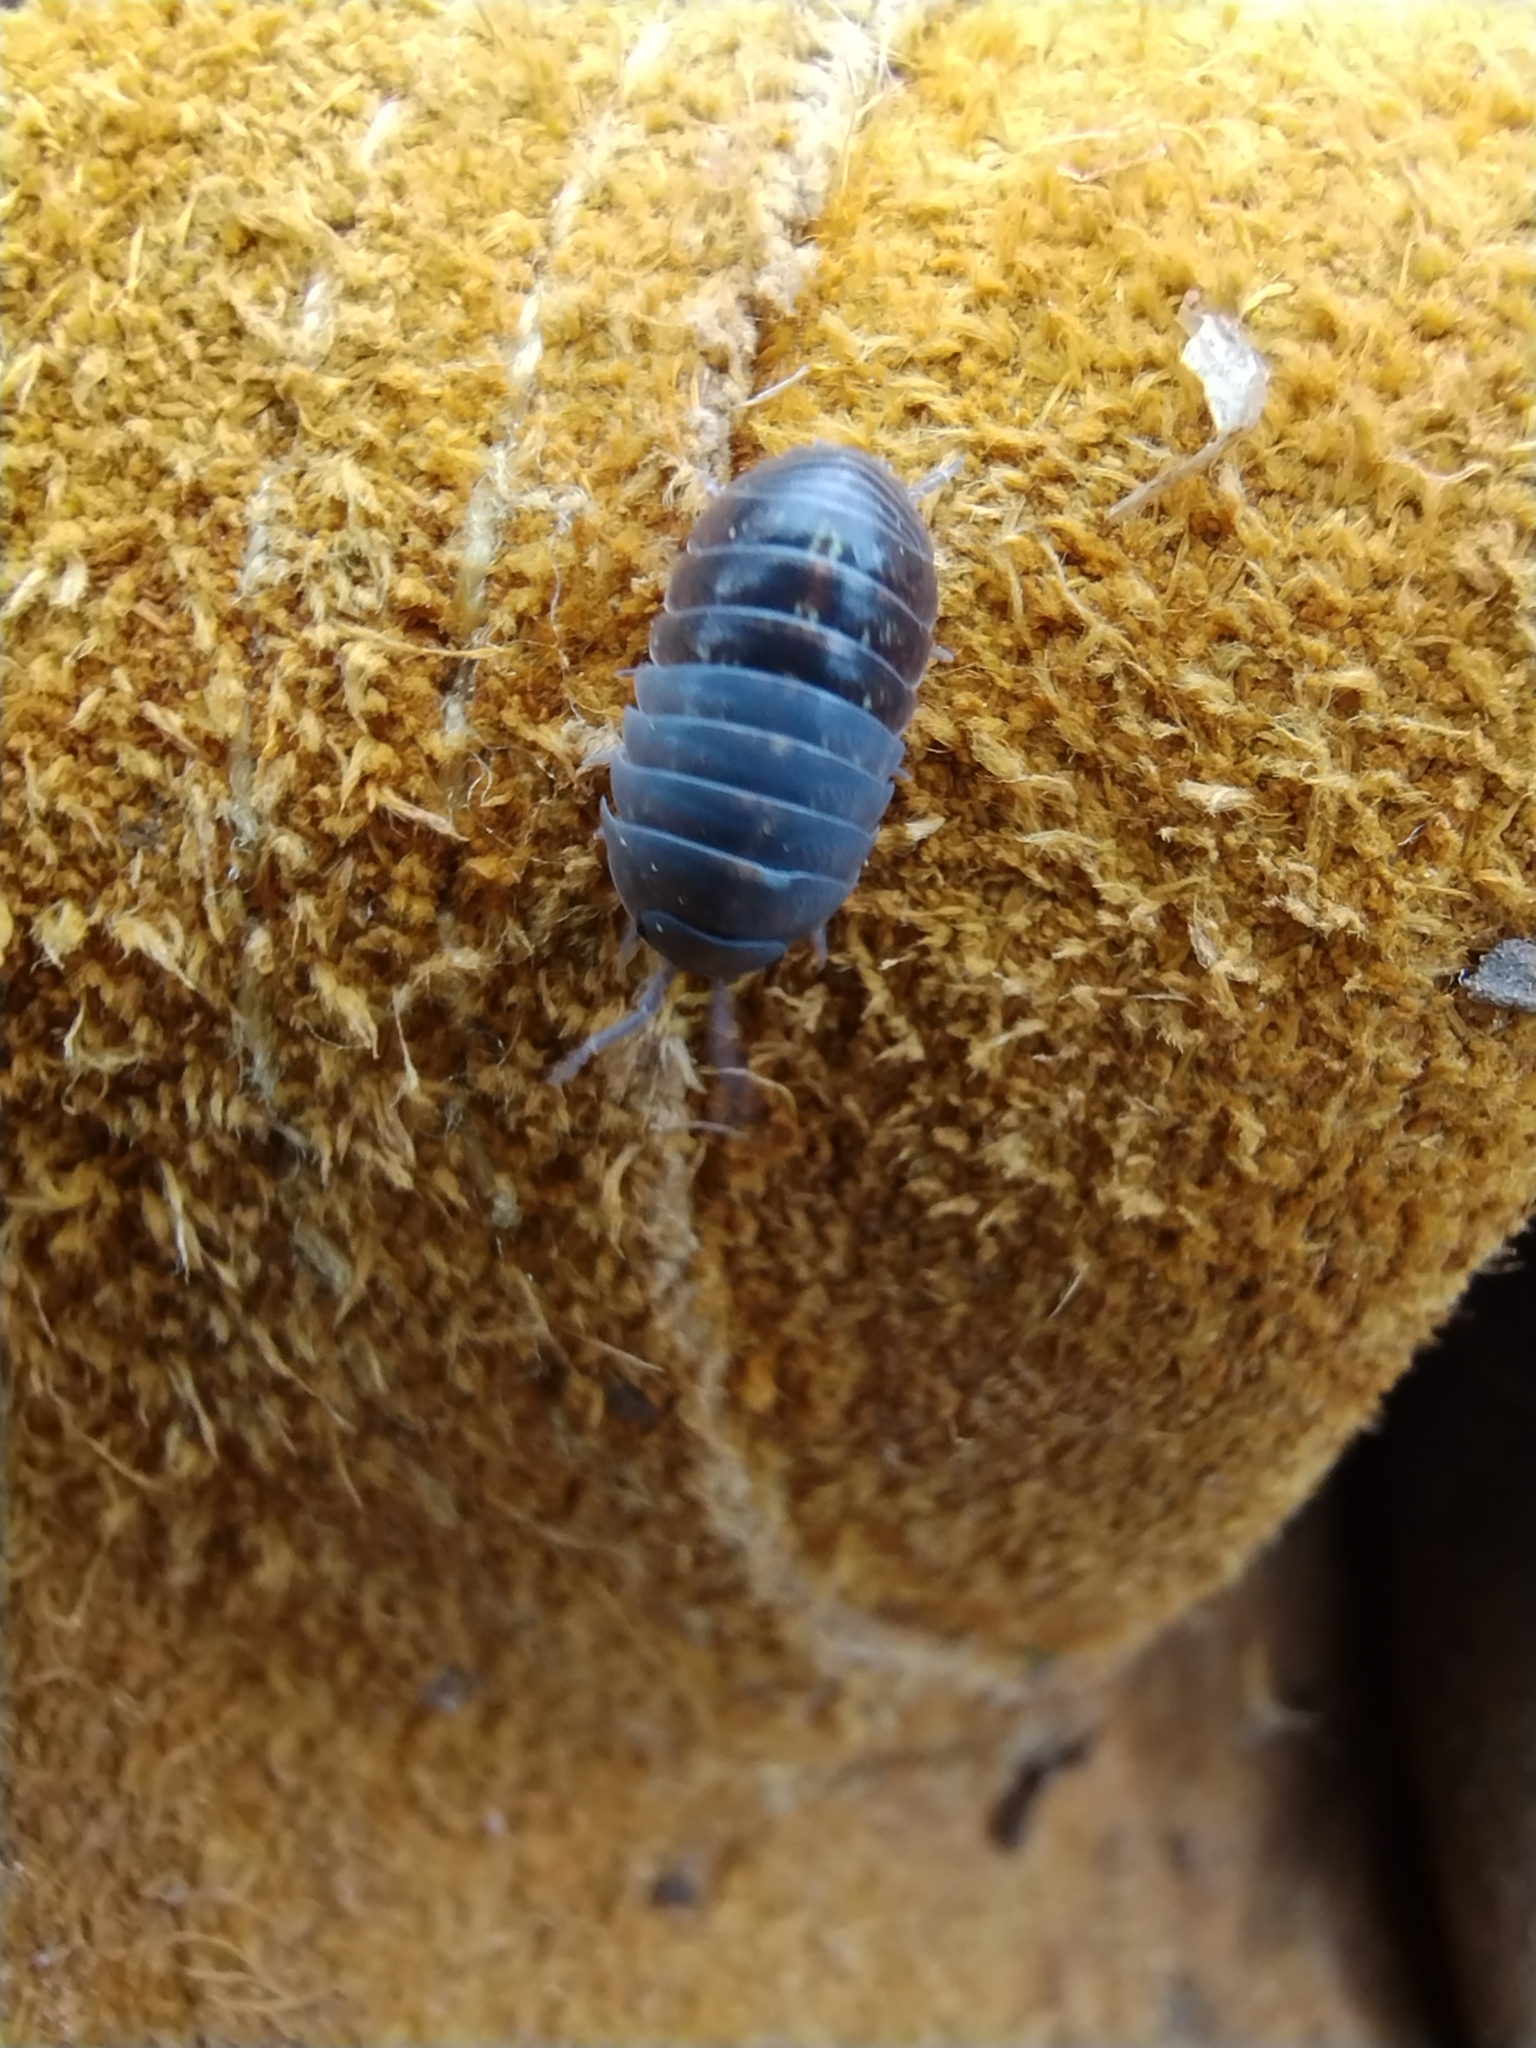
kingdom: Animalia
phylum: Arthropoda
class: Malacostraca
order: Isopoda
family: Armadillidiidae
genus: Armadillidium
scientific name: Armadillidium vulgare
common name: Common pill woodlouse
